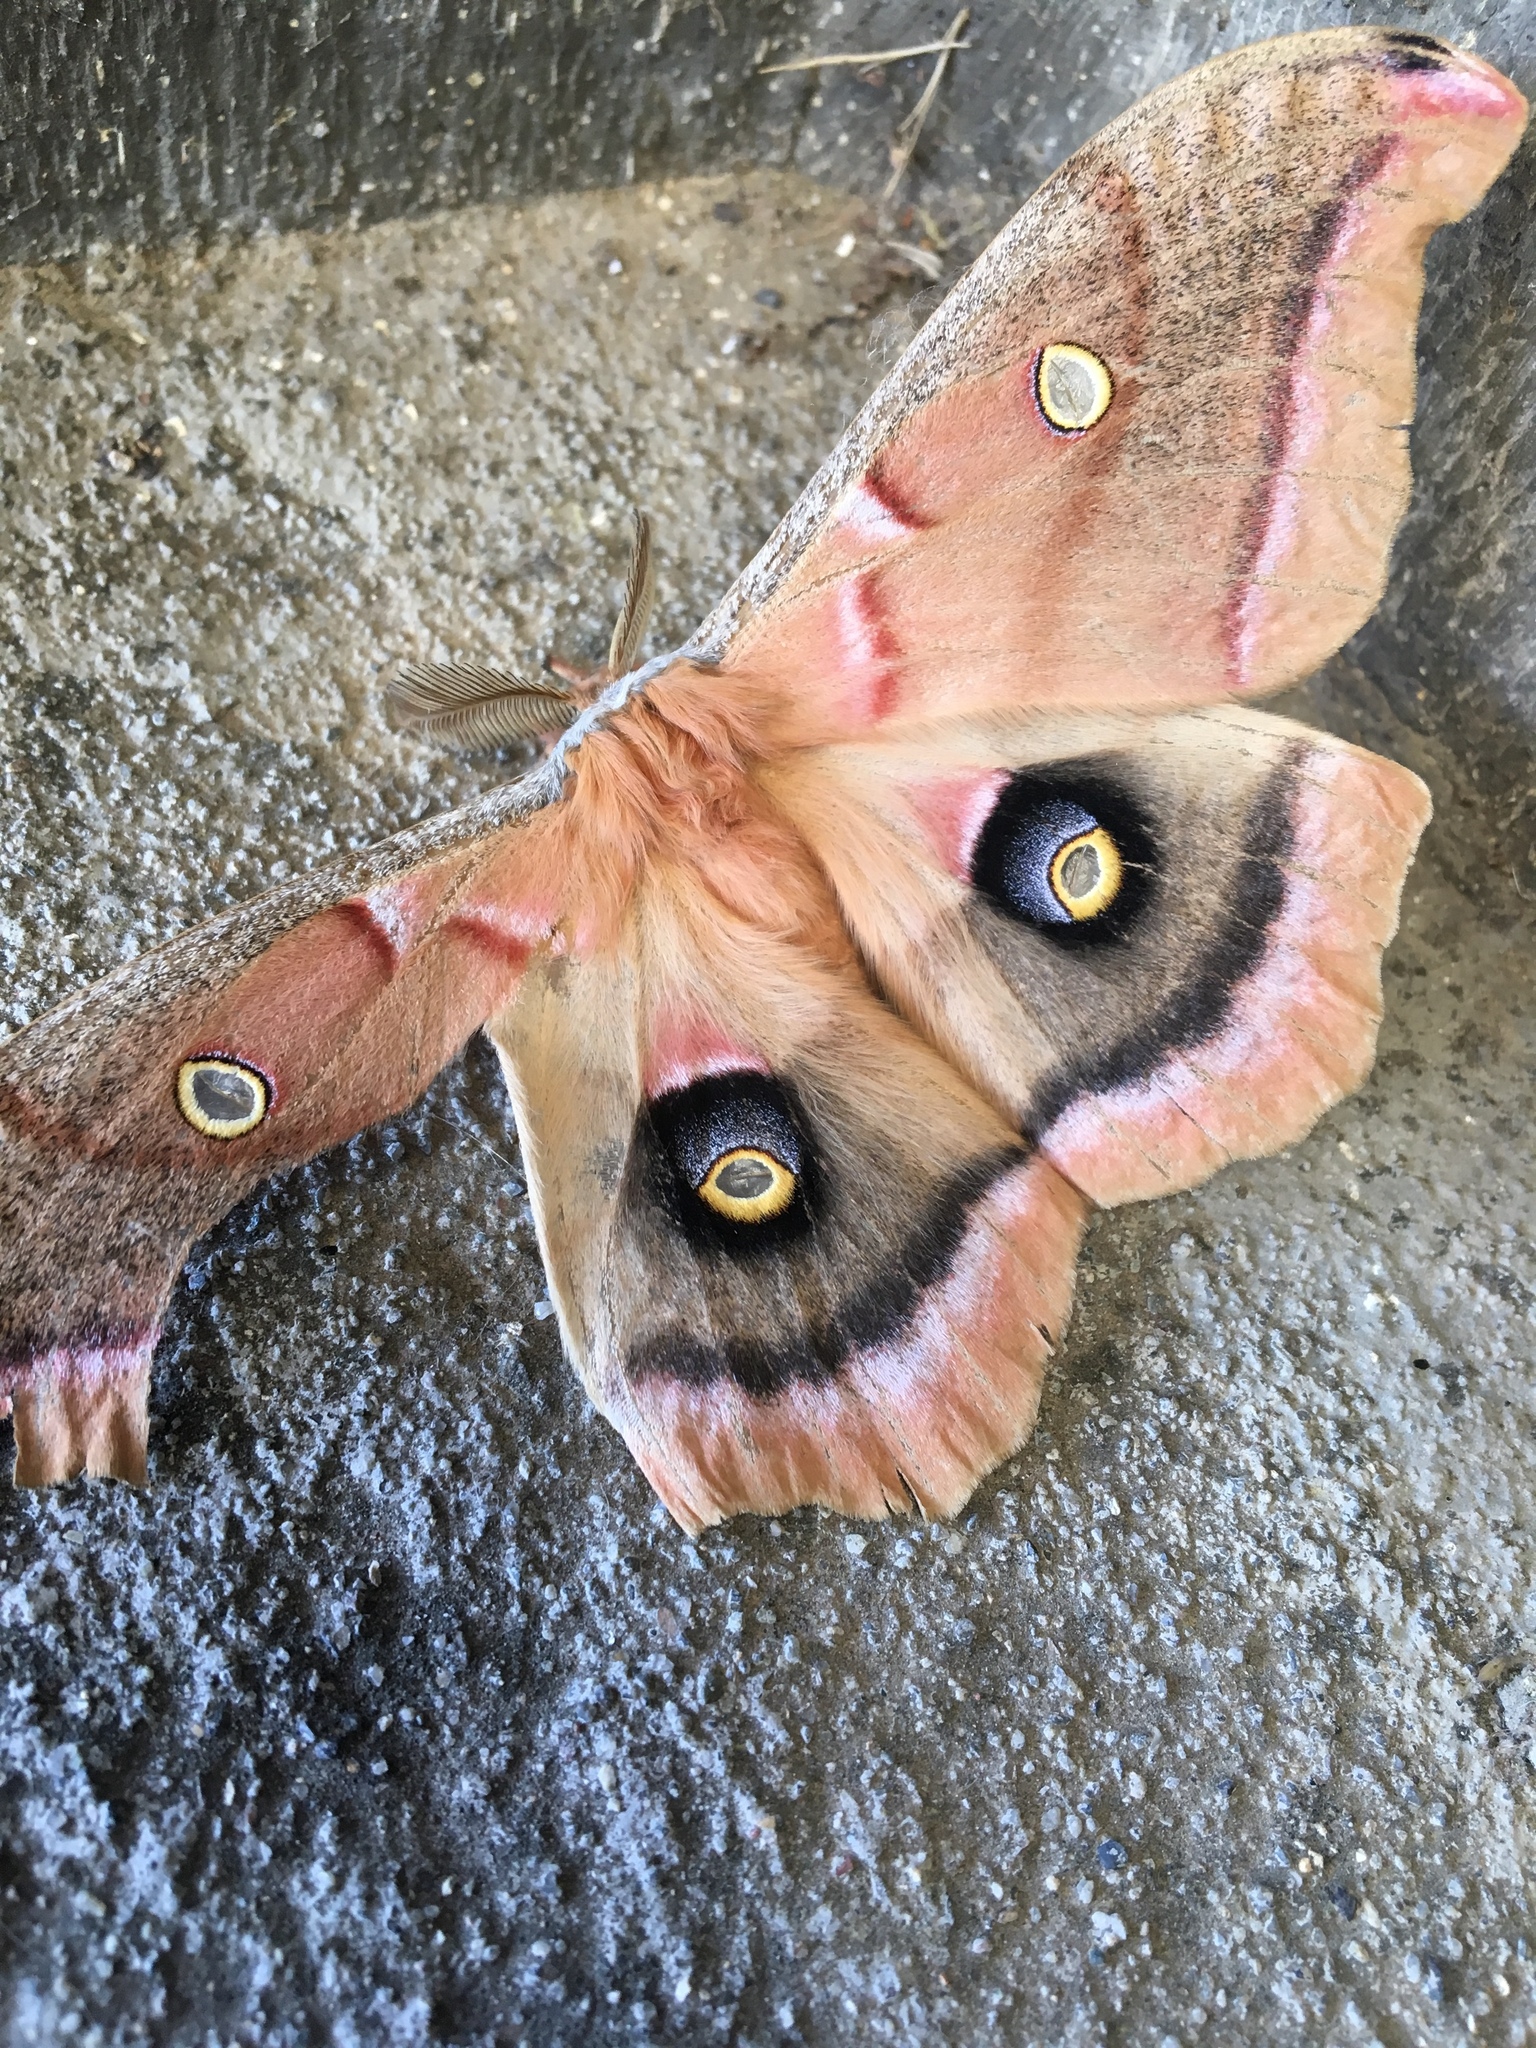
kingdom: Animalia
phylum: Arthropoda
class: Insecta
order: Lepidoptera
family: Saturniidae
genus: Antheraea
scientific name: Antheraea polyphemus
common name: Polyphemus moth
